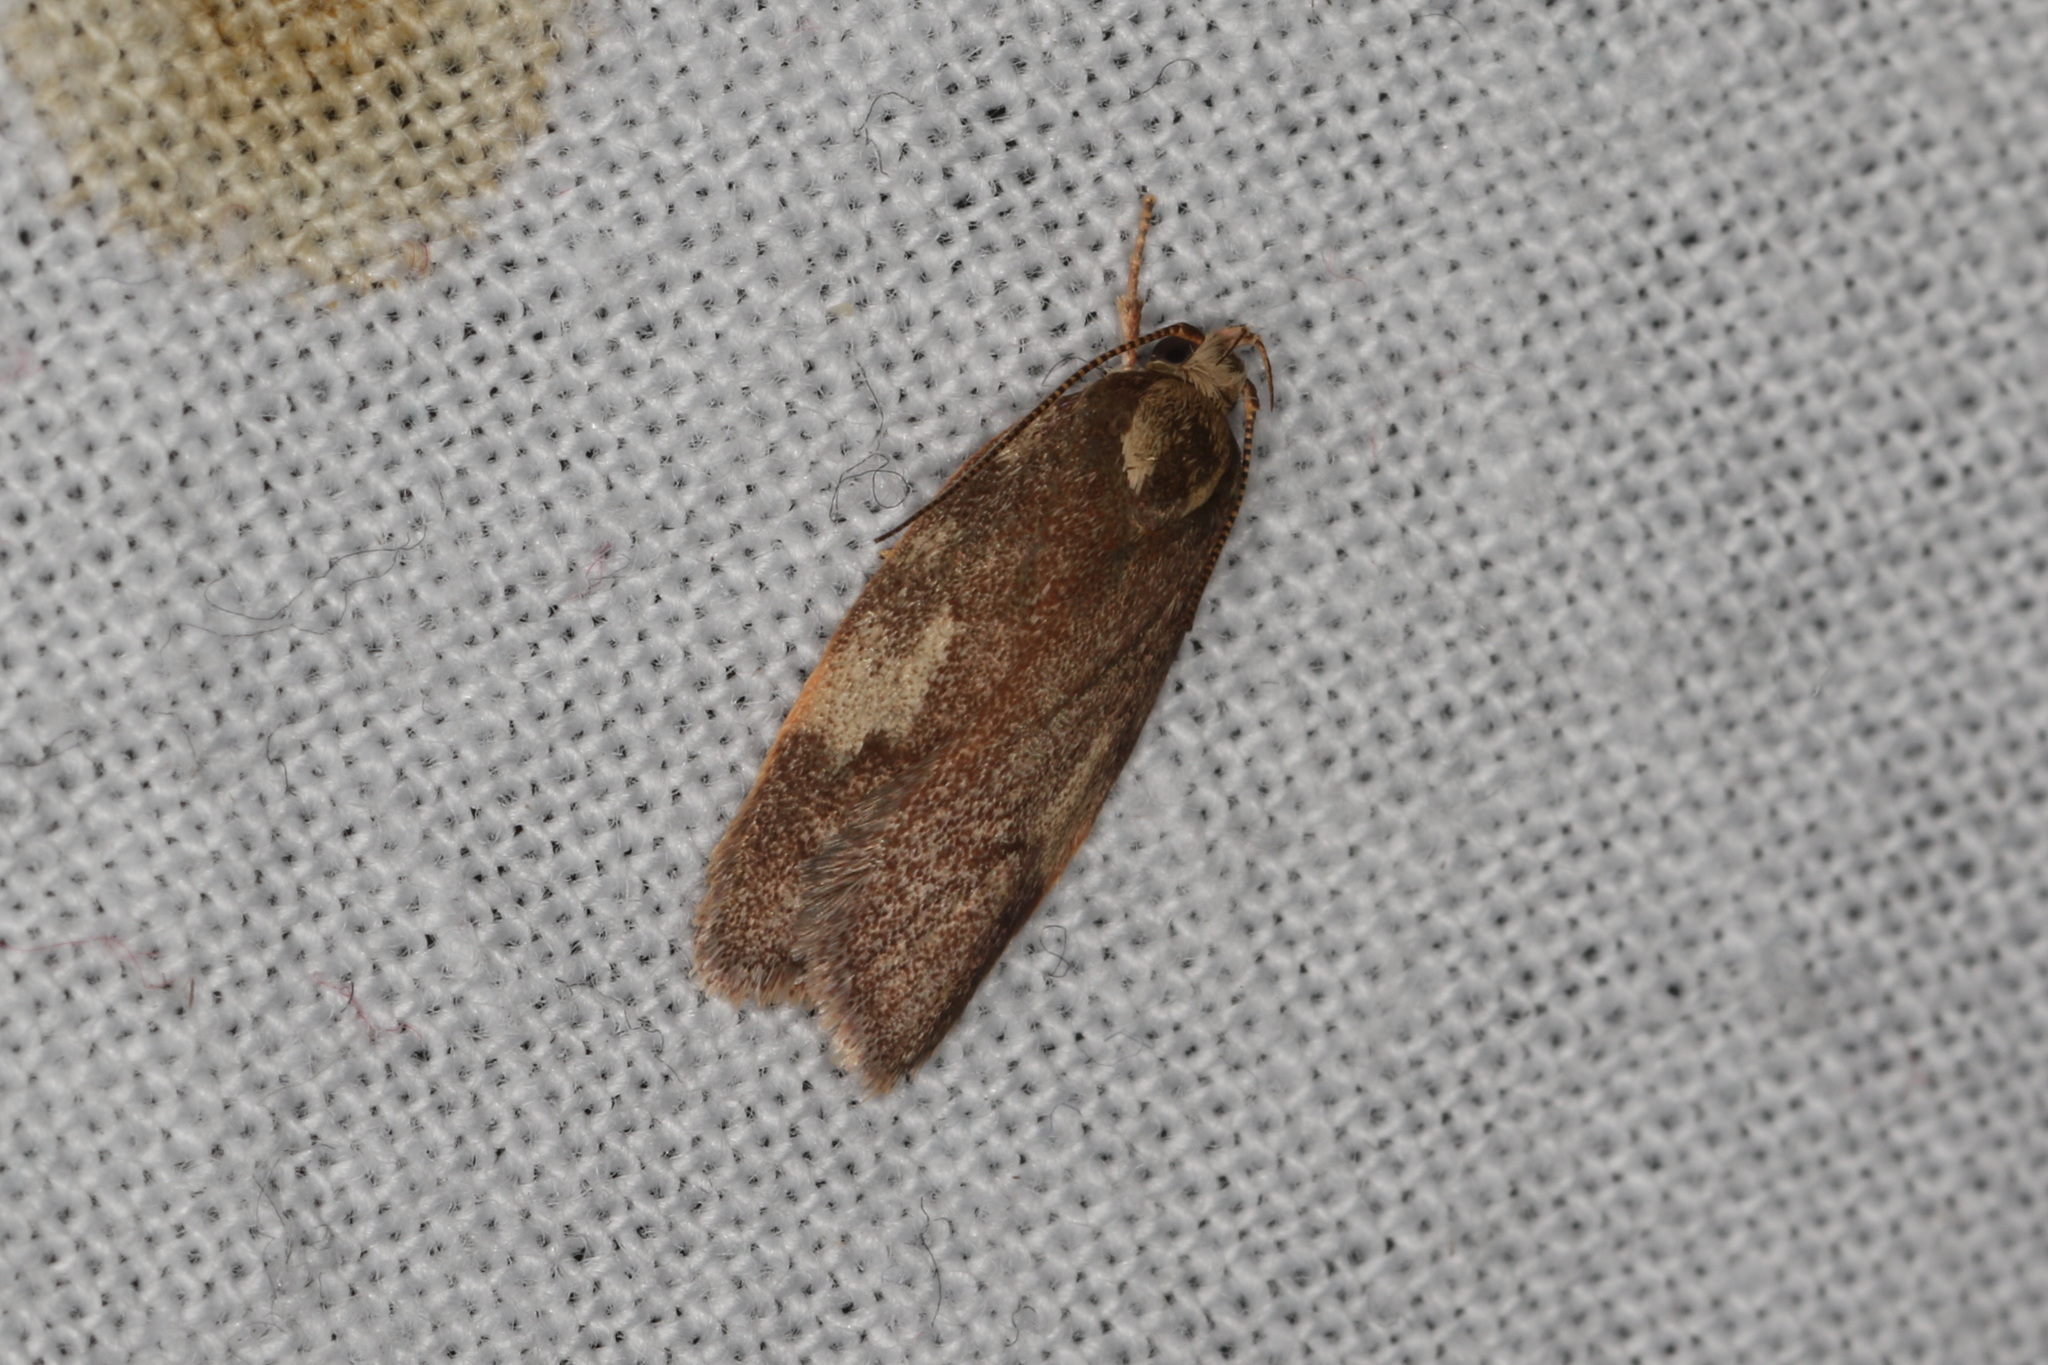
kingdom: Animalia
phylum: Arthropoda
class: Insecta
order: Lepidoptera
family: Oecophoridae
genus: Syringoseca
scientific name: Syringoseca mimica
